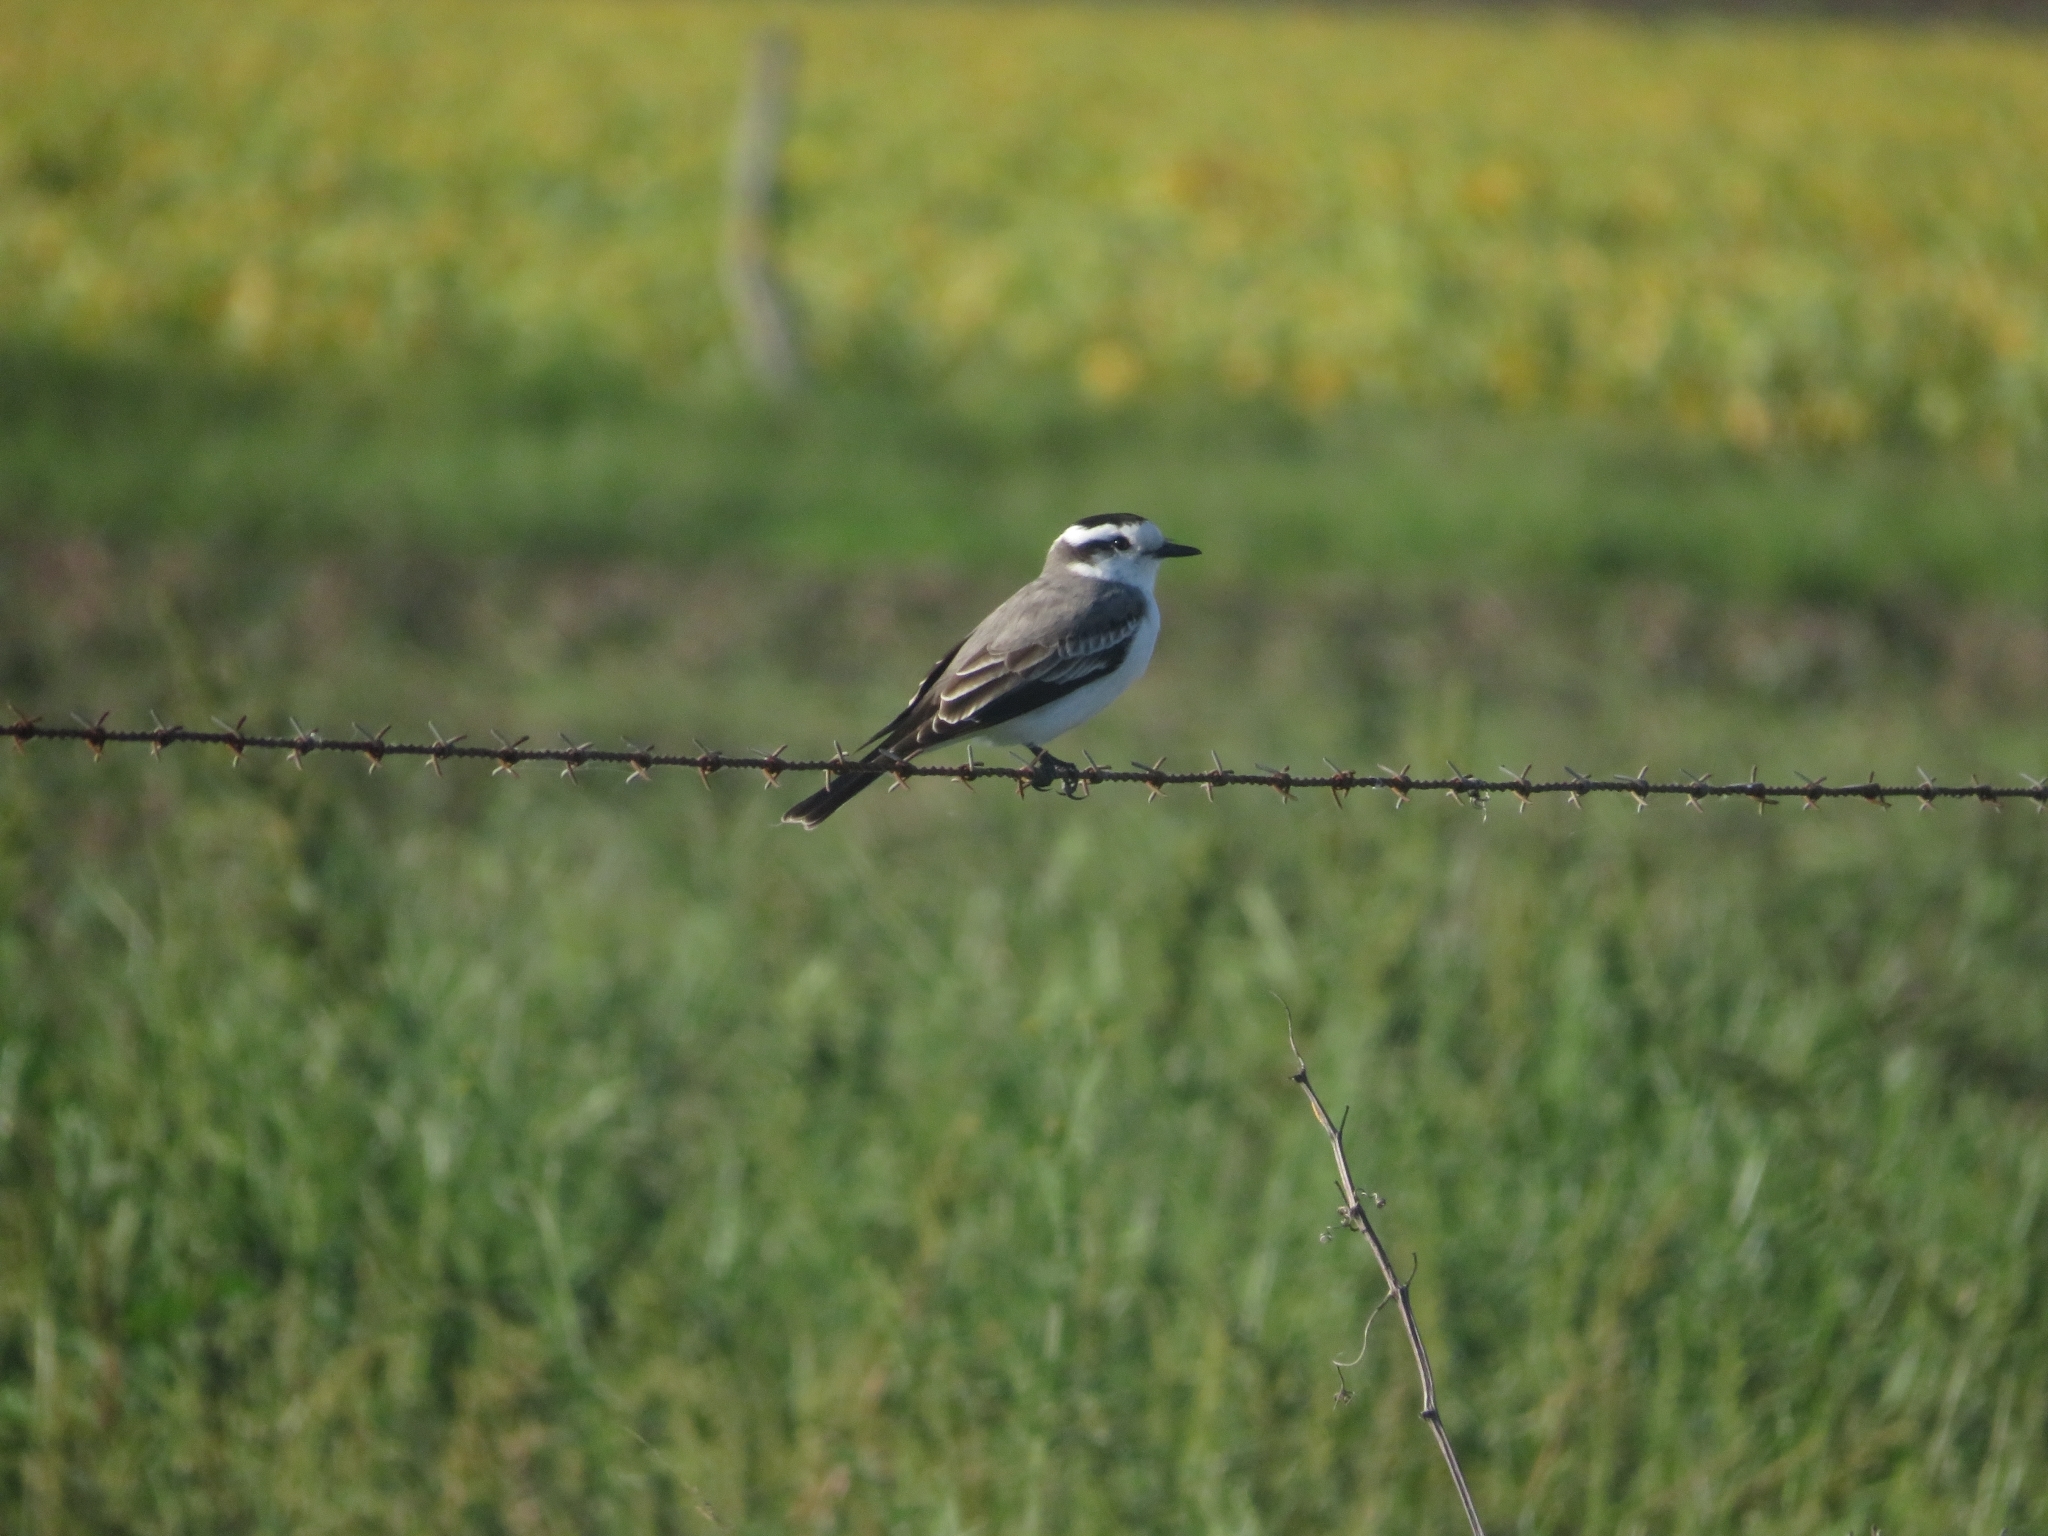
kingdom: Animalia
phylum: Chordata
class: Aves
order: Passeriformes
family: Tyrannidae
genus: Xolmis
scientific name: Xolmis coronatus
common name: Black-crowned monjita
